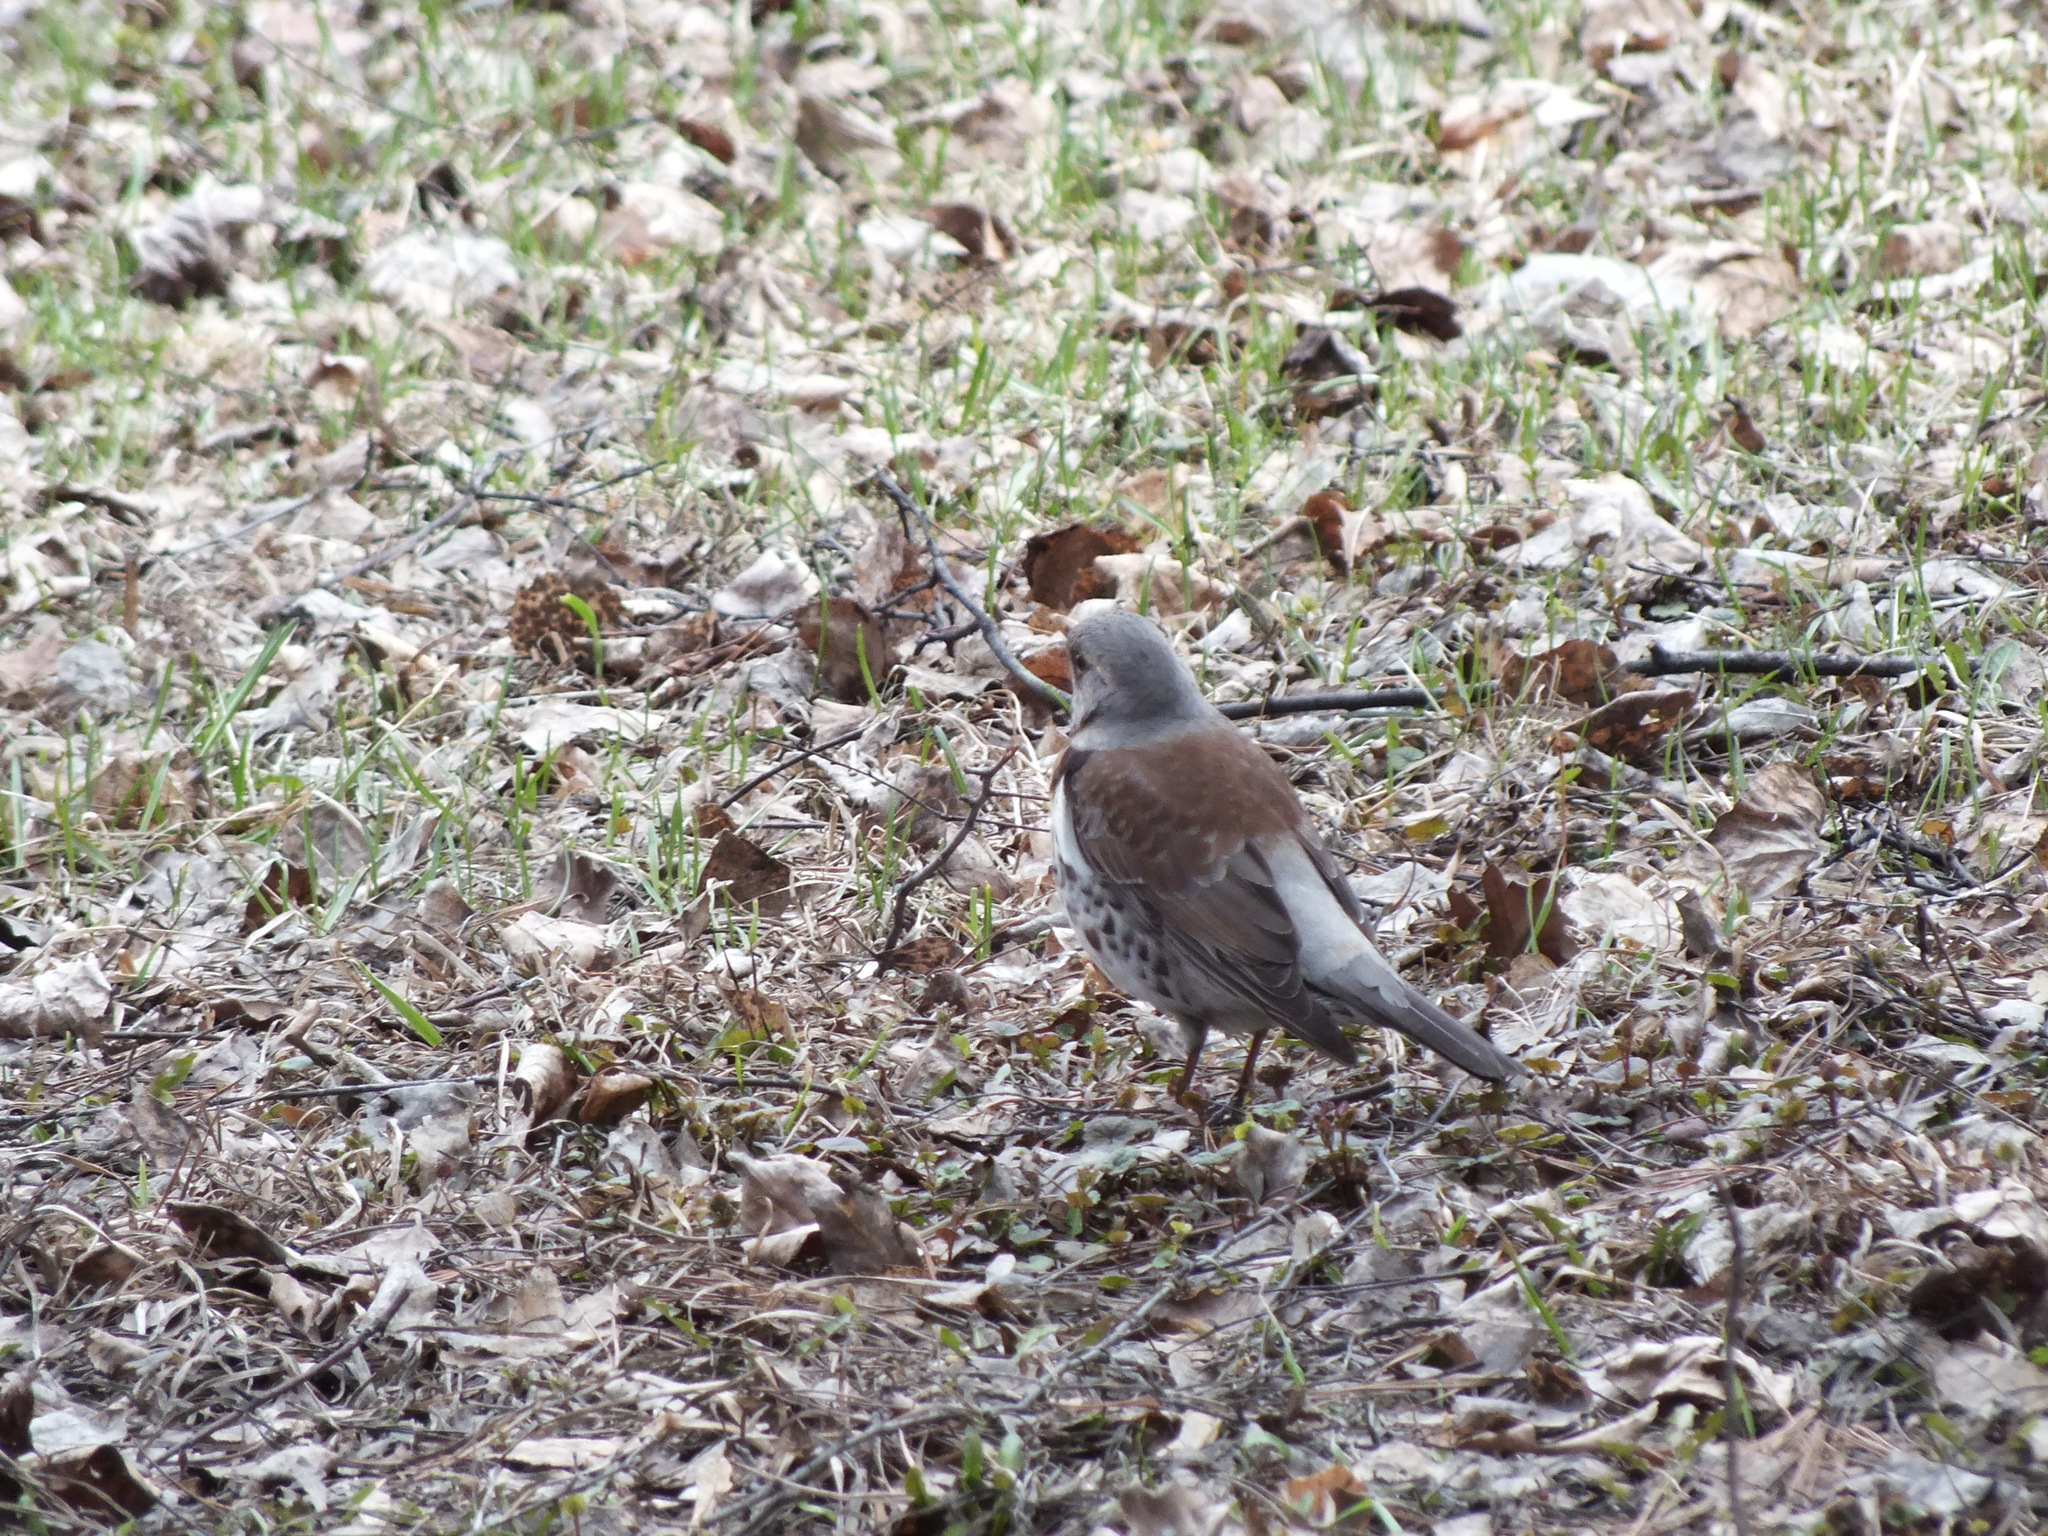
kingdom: Animalia
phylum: Chordata
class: Aves
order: Passeriformes
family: Turdidae
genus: Turdus
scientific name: Turdus pilaris
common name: Fieldfare
